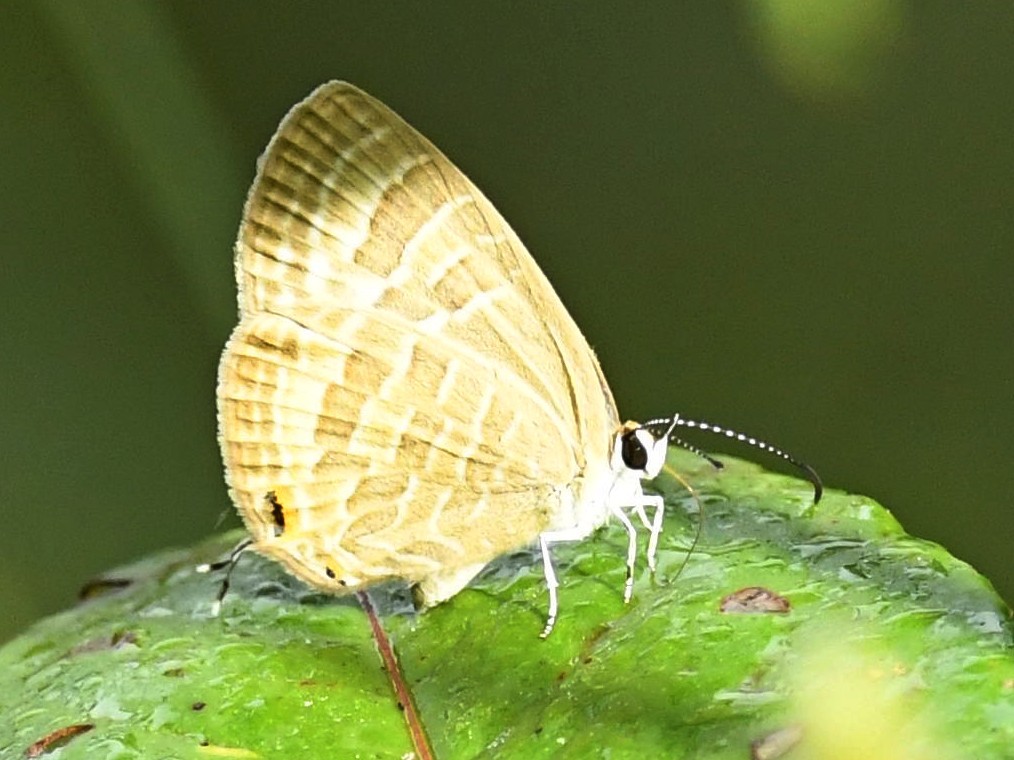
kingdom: Animalia
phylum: Arthropoda
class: Insecta
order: Lepidoptera
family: Lycaenidae
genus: Jamides
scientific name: Jamides celeno
